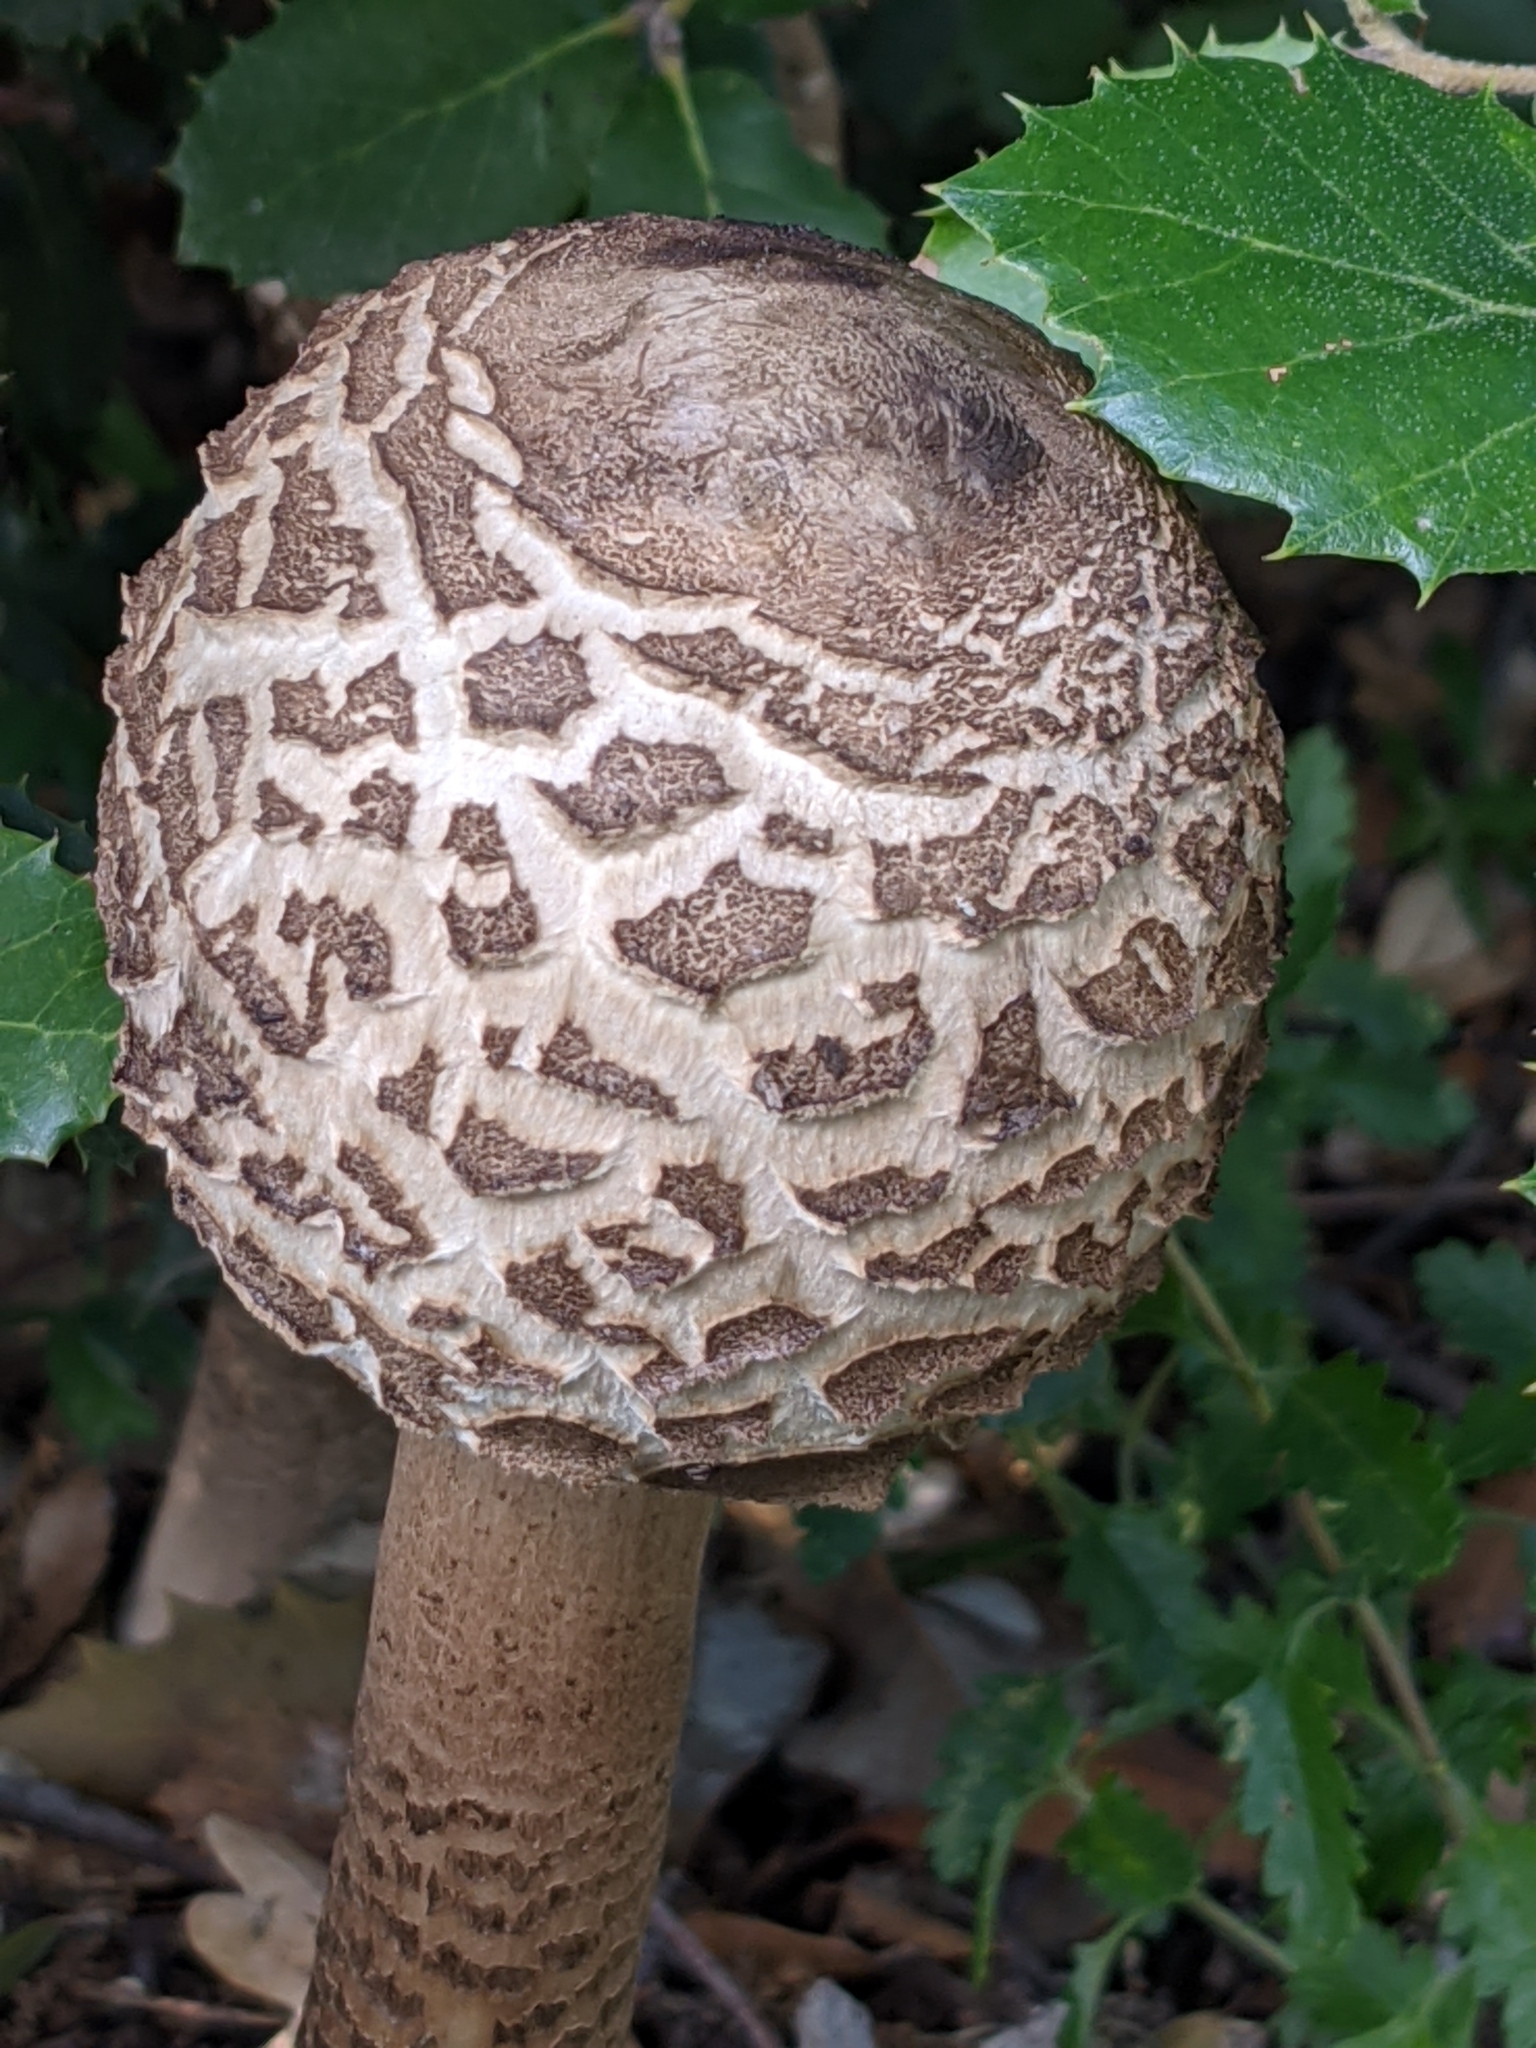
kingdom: Fungi
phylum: Basidiomycota
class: Agaricomycetes
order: Agaricales
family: Agaricaceae
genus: Macrolepiota
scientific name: Macrolepiota procera
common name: Parasol
